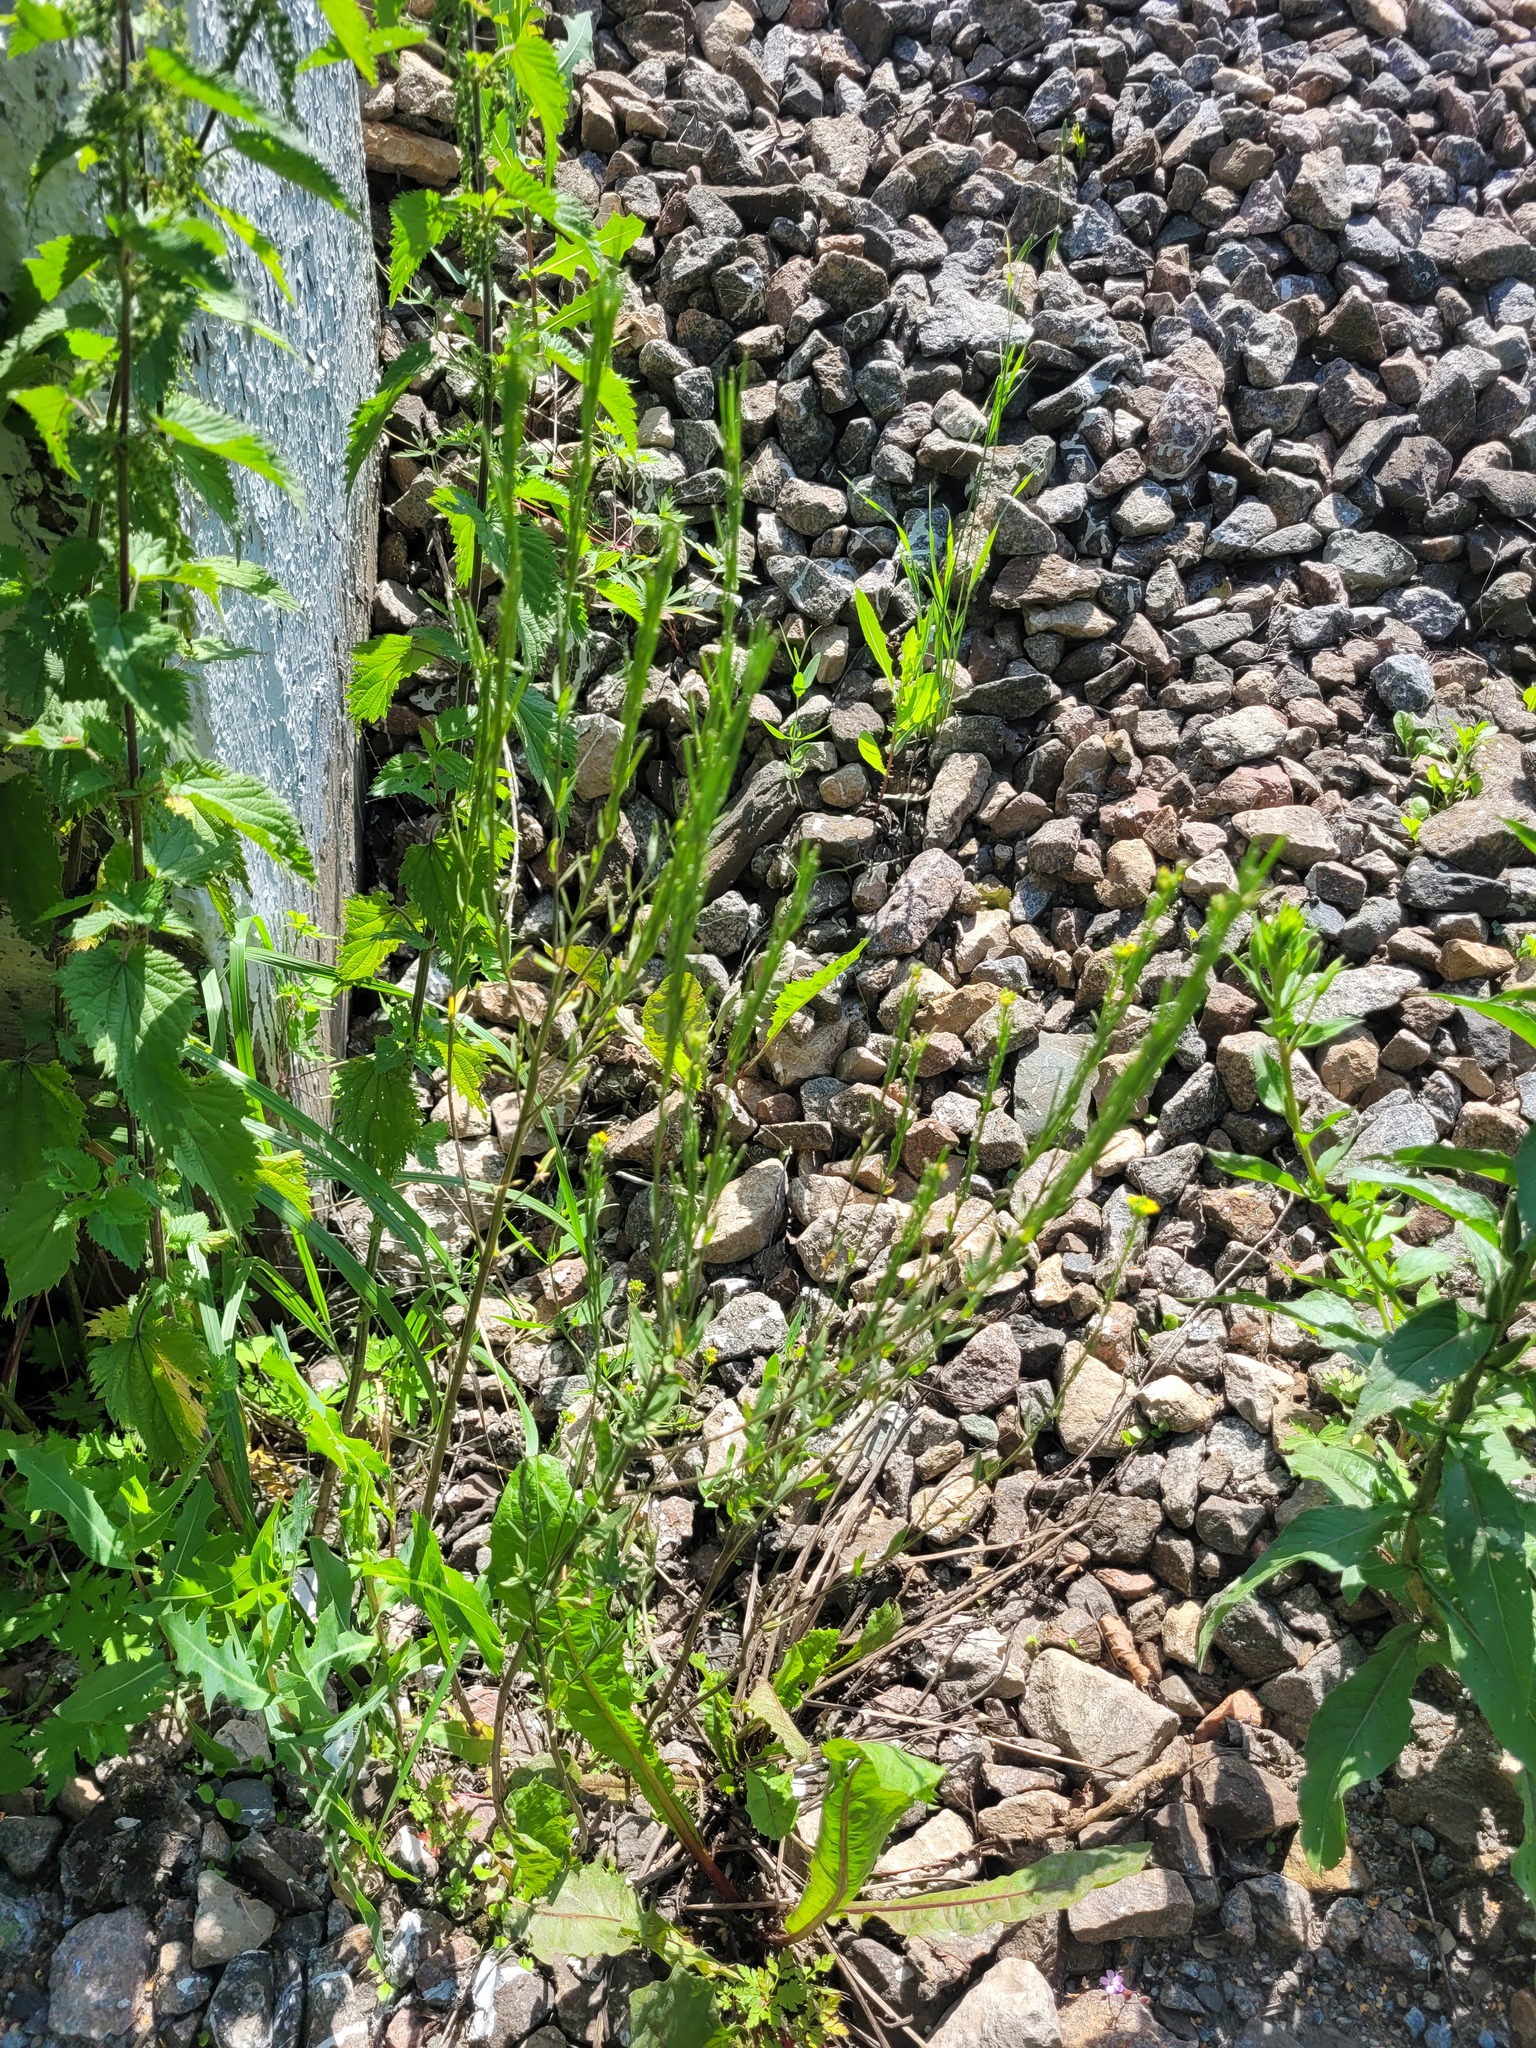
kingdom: Plantae
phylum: Tracheophyta
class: Magnoliopsida
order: Brassicales
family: Brassicaceae
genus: Erysimum
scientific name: Erysimum hieraciifolium
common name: European wallflower
